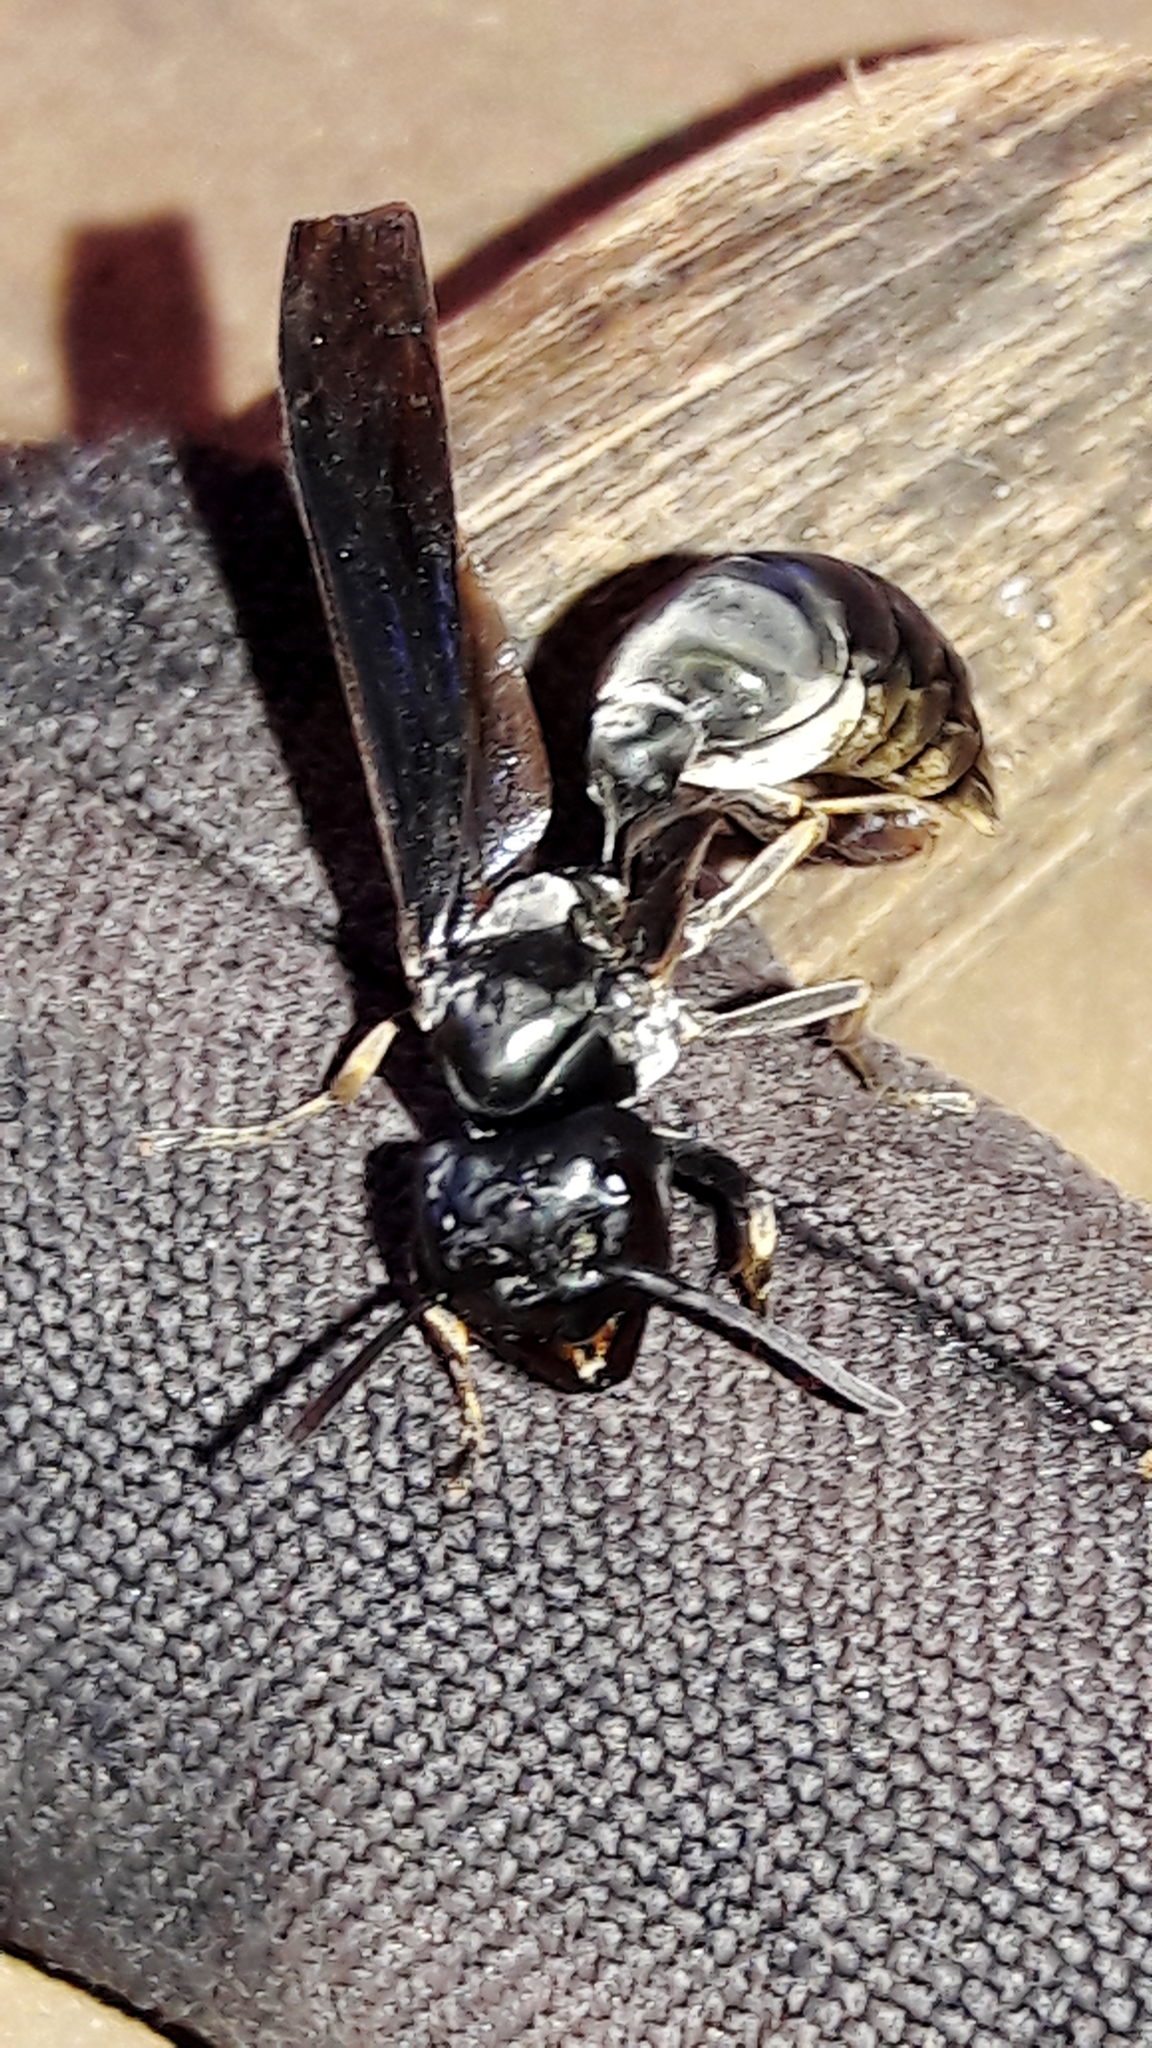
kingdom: Animalia
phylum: Arthropoda
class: Insecta
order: Hymenoptera
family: Vespidae
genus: Synoeca
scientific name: Synoeca surinama
